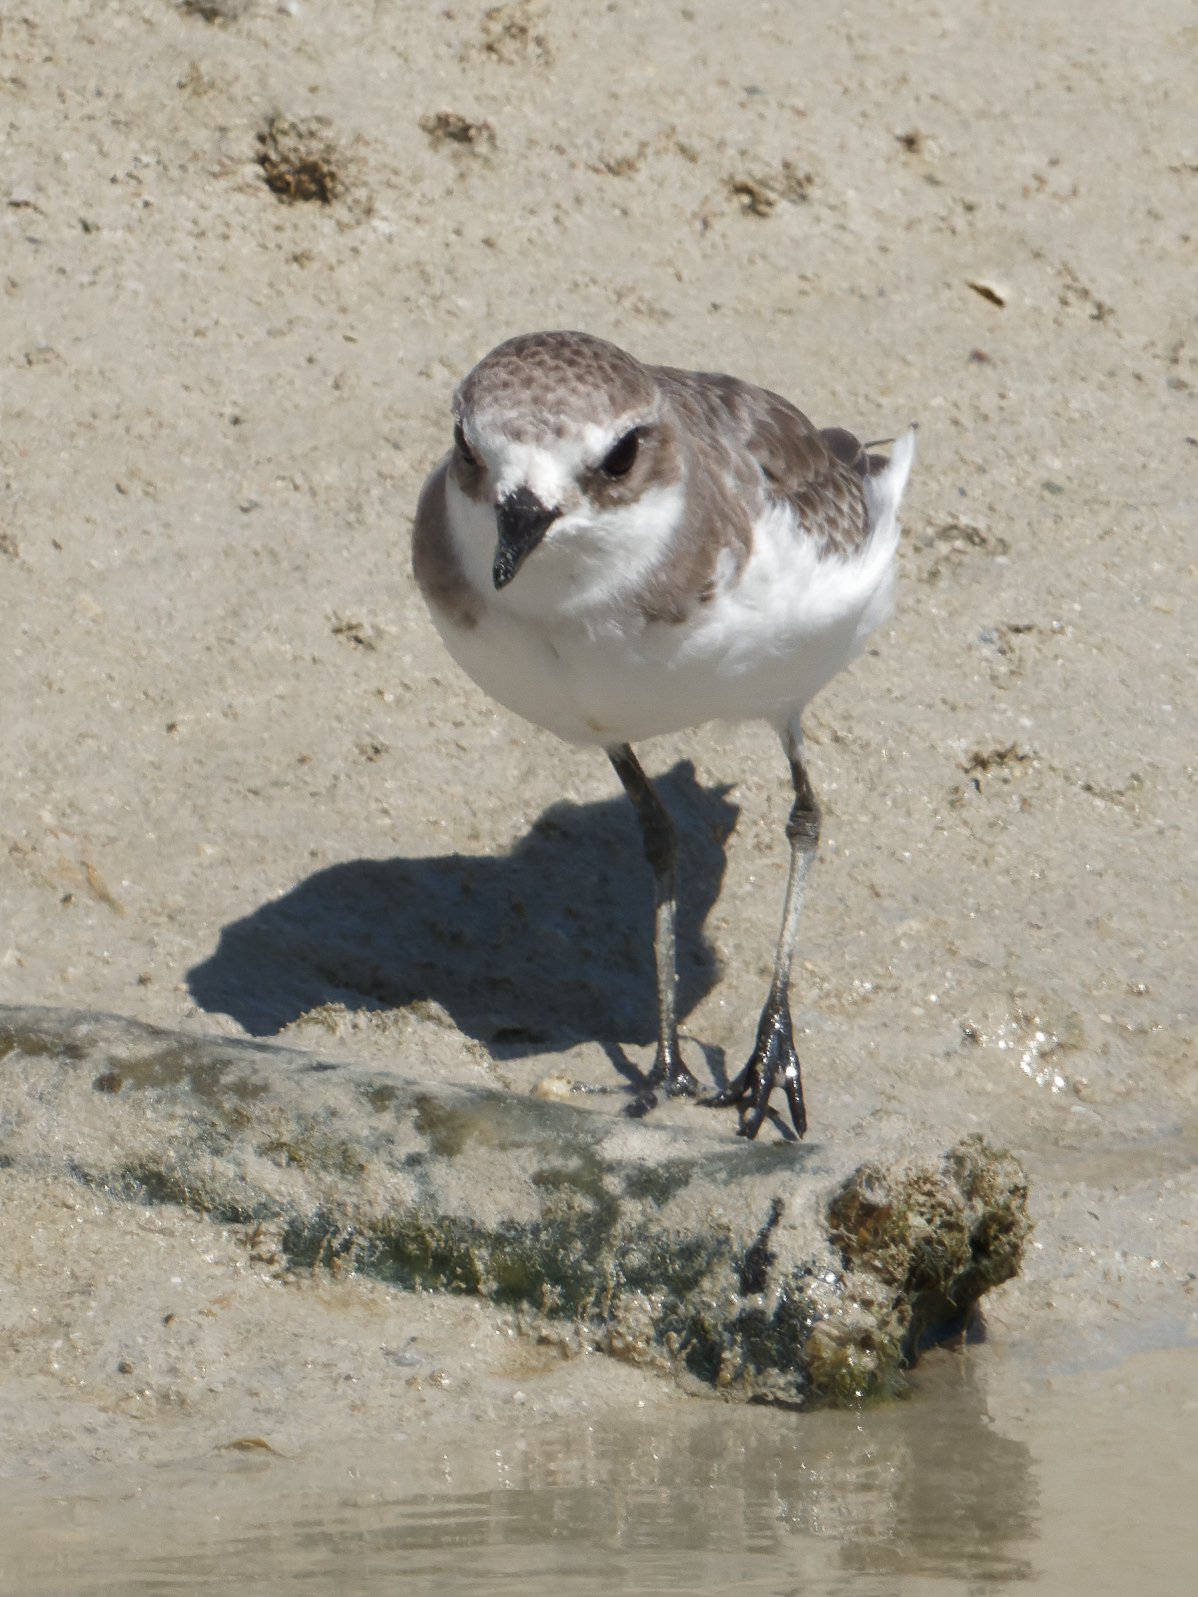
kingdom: Animalia
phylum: Chordata
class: Aves
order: Charadriiformes
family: Charadriidae
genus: Charadrius
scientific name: Charadrius alexandrinus
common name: Kentish plover
